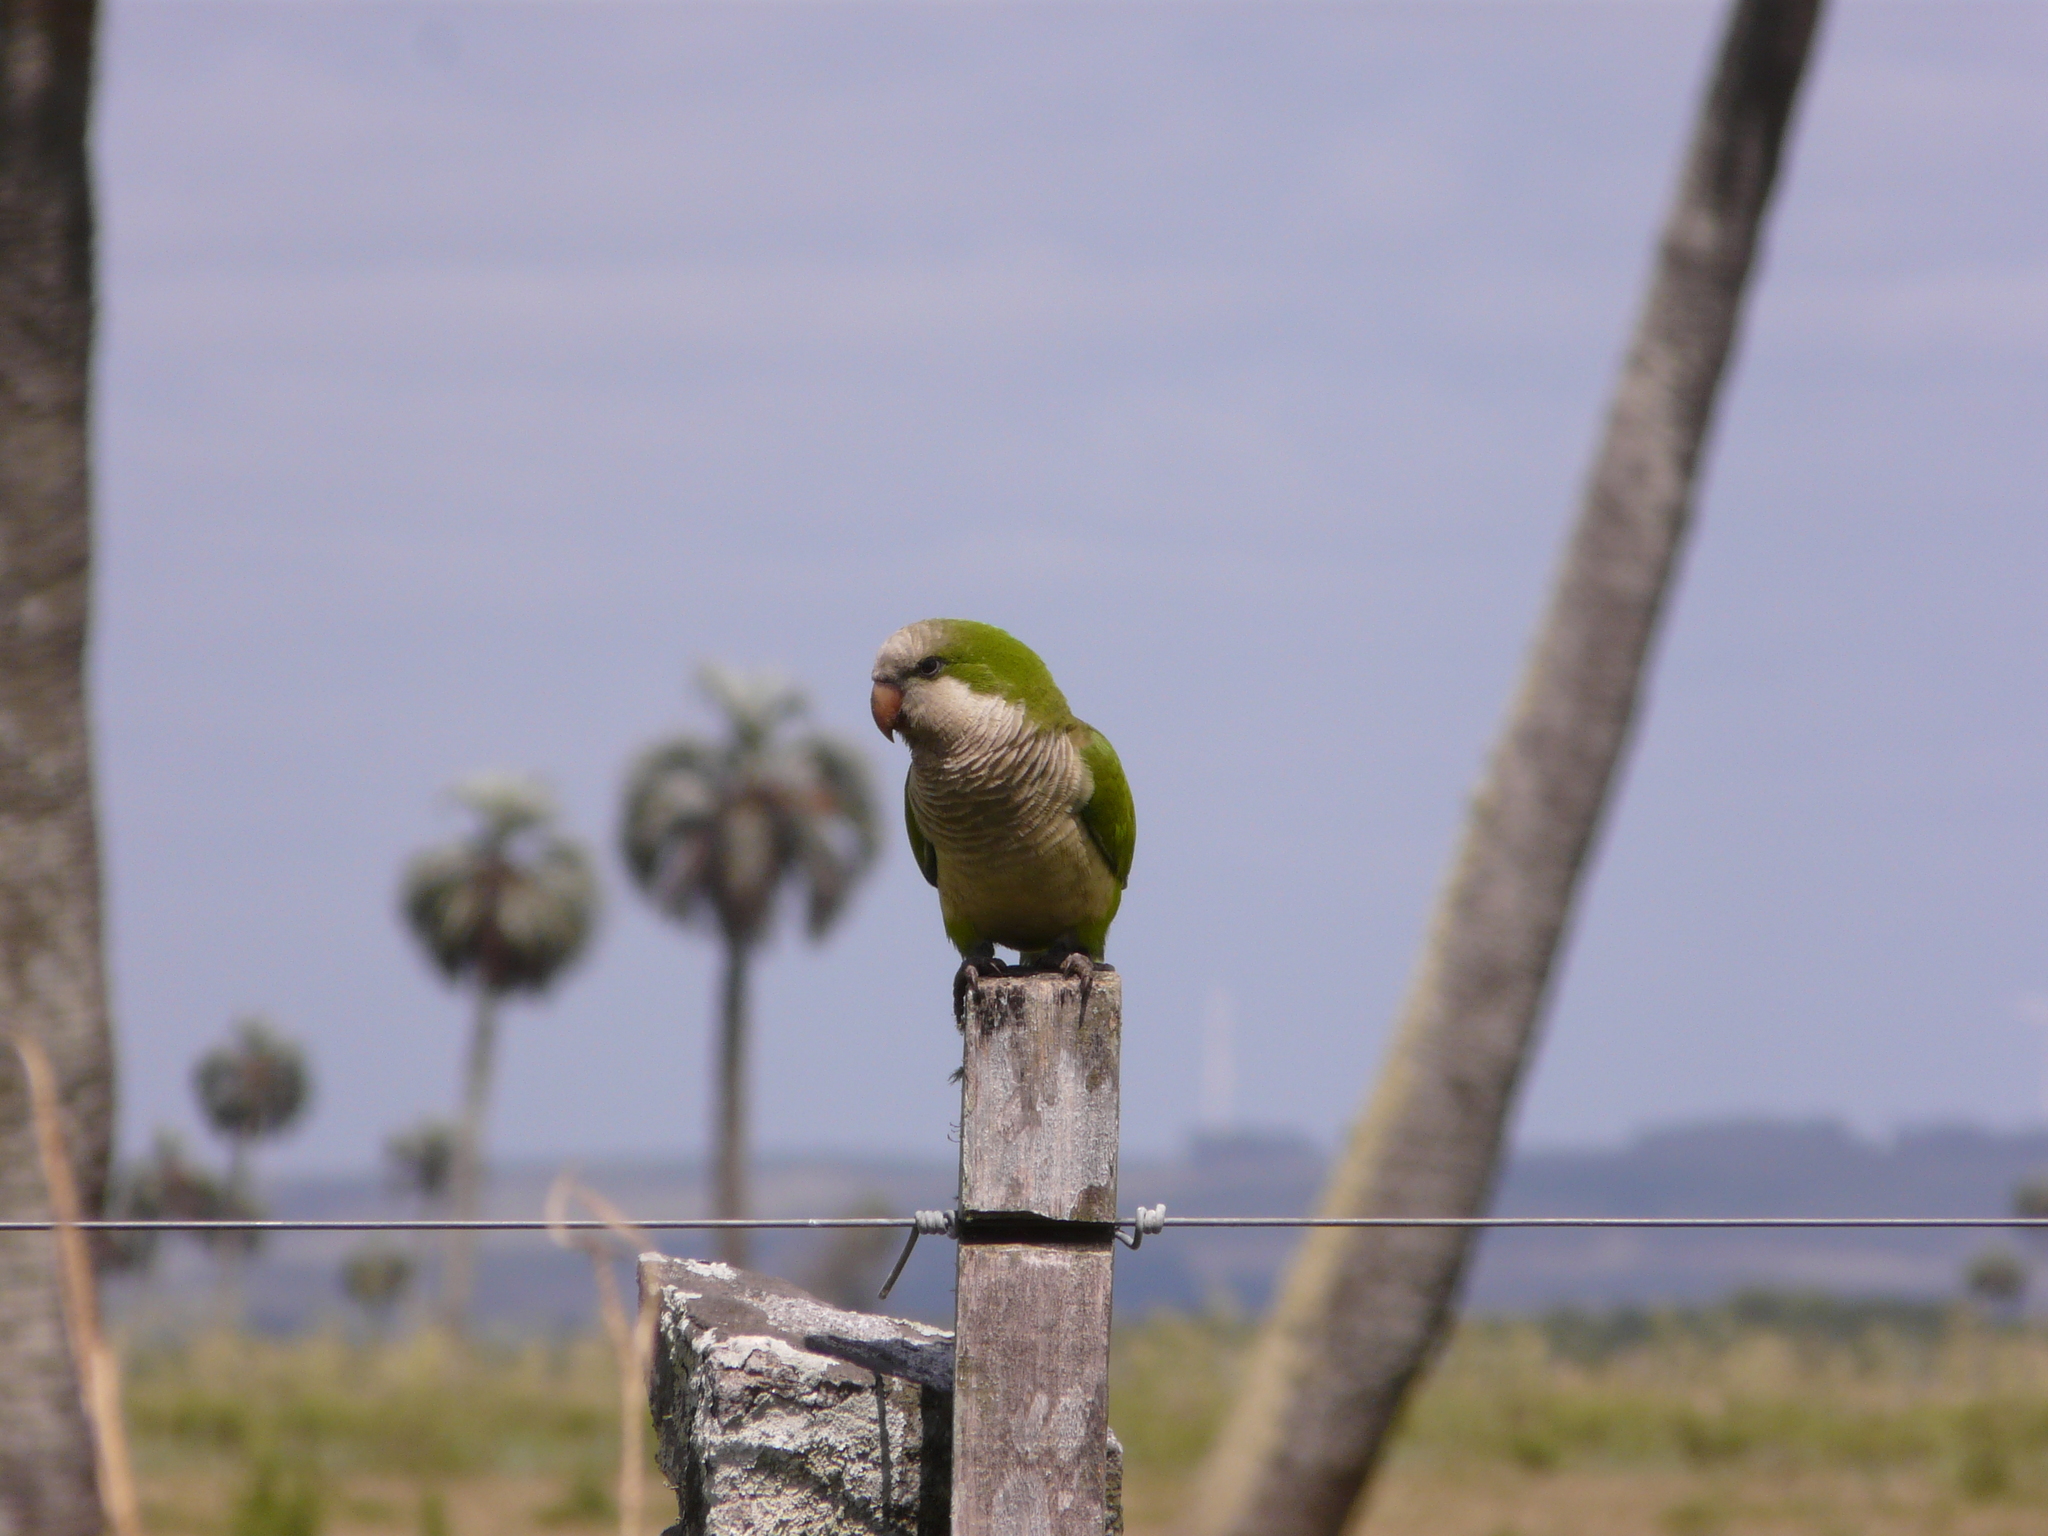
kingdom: Animalia
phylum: Chordata
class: Aves
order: Psittaciformes
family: Psittacidae
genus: Myiopsitta
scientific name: Myiopsitta monachus
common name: Monk parakeet
